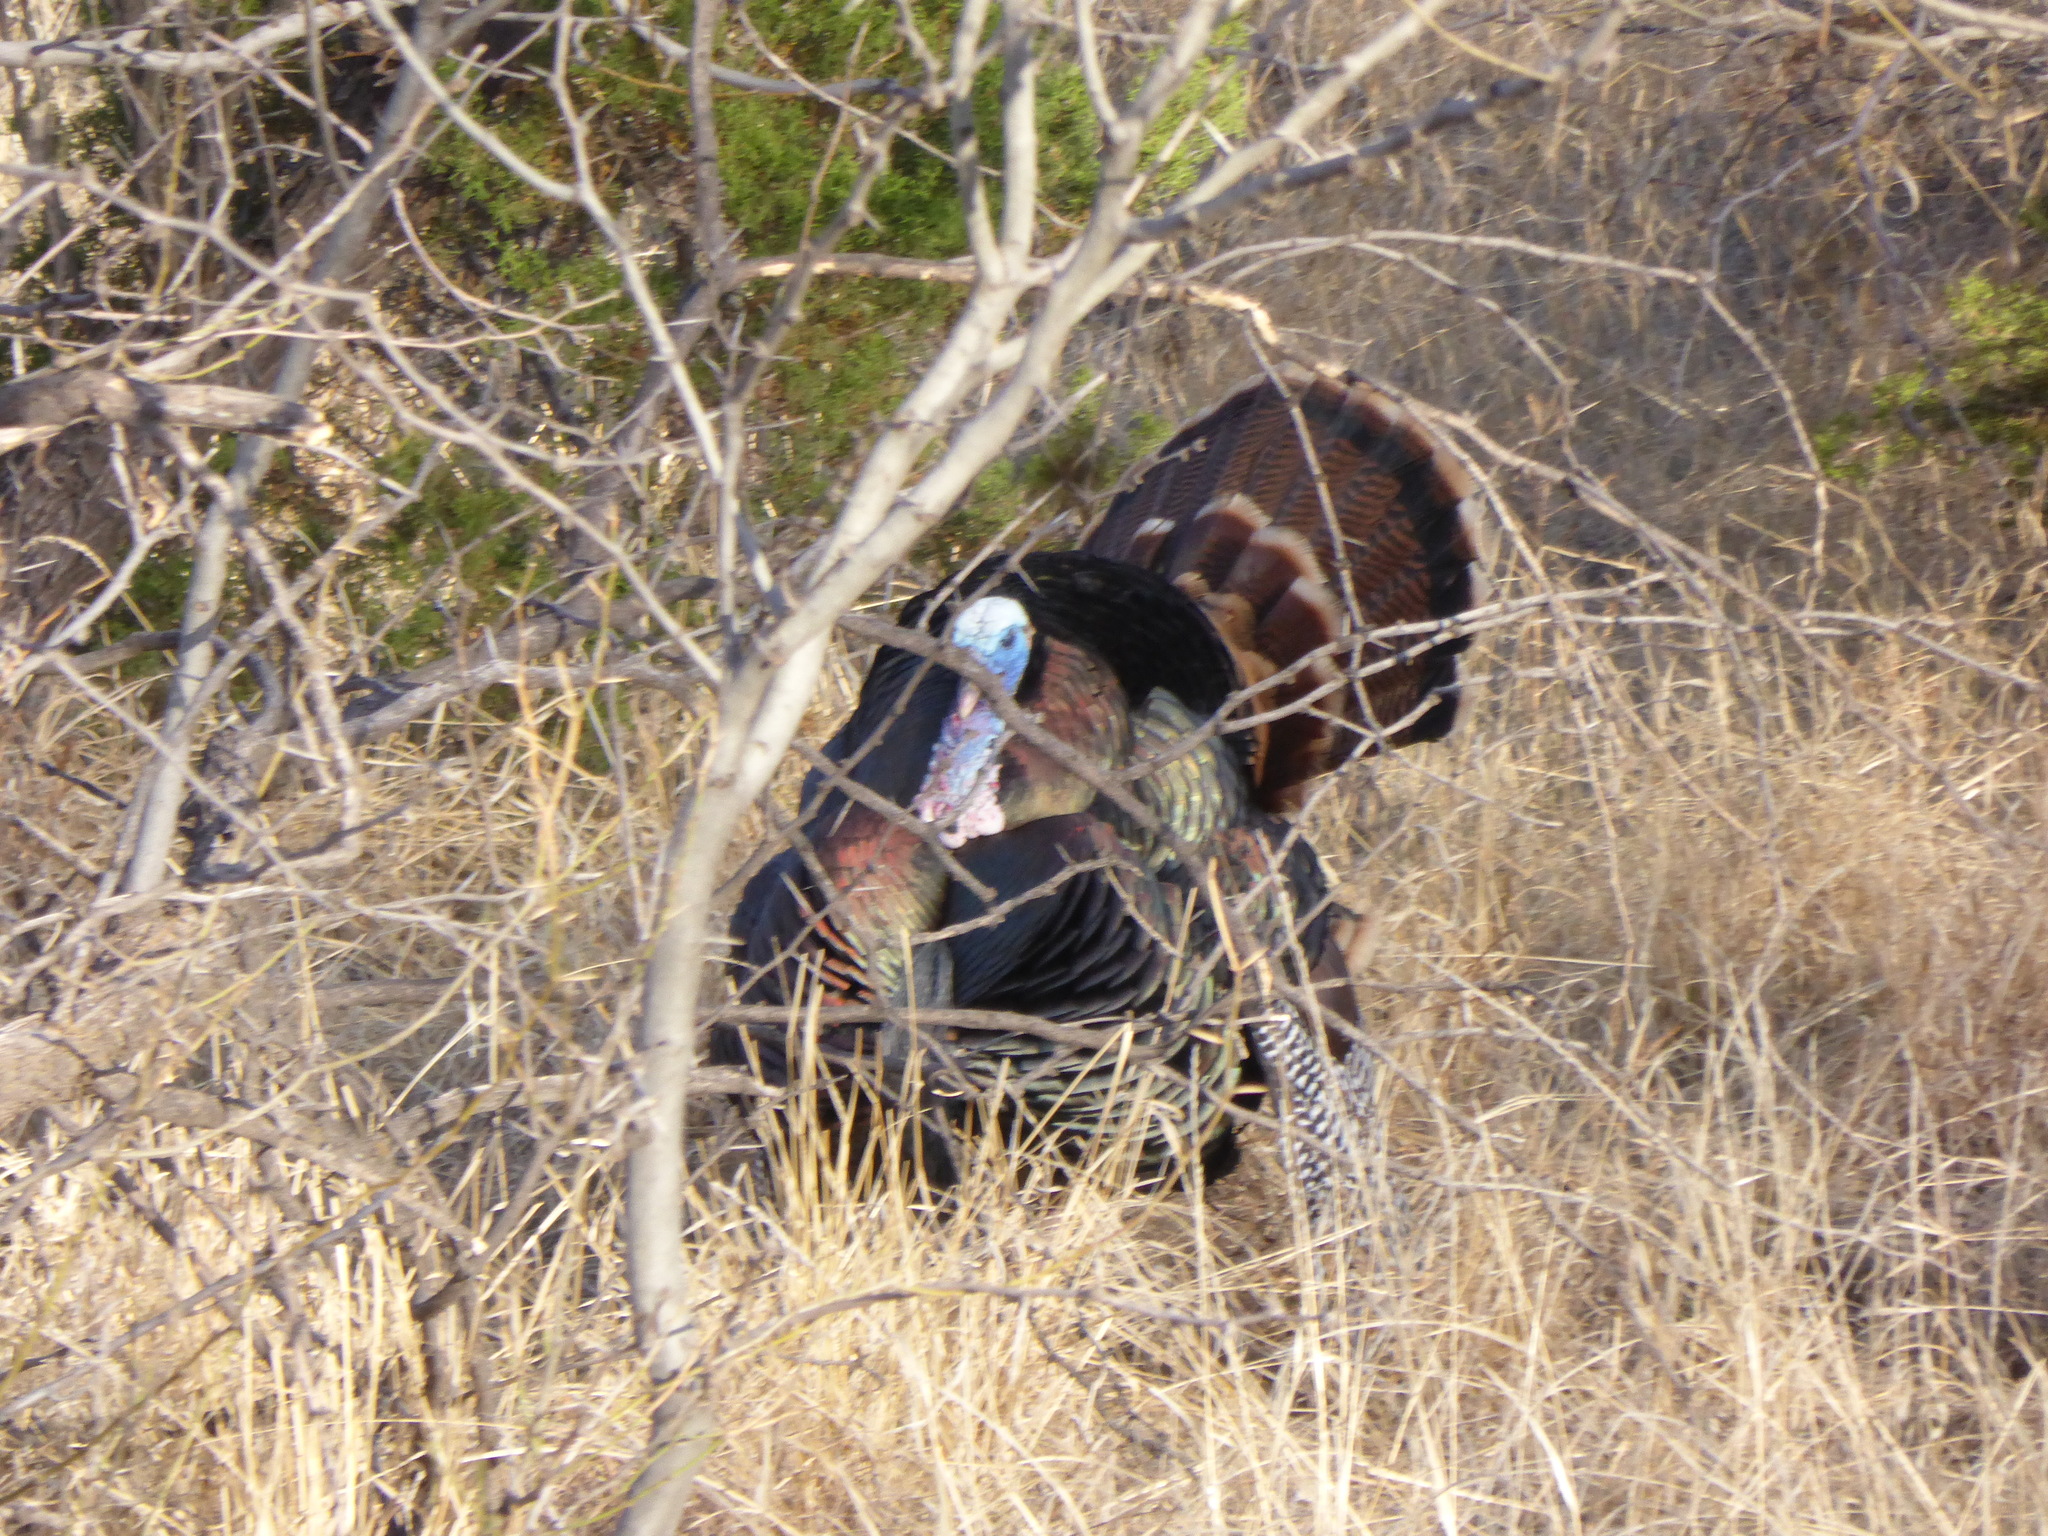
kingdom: Animalia
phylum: Chordata
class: Aves
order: Galliformes
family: Phasianidae
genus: Meleagris
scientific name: Meleagris gallopavo
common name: Wild turkey
